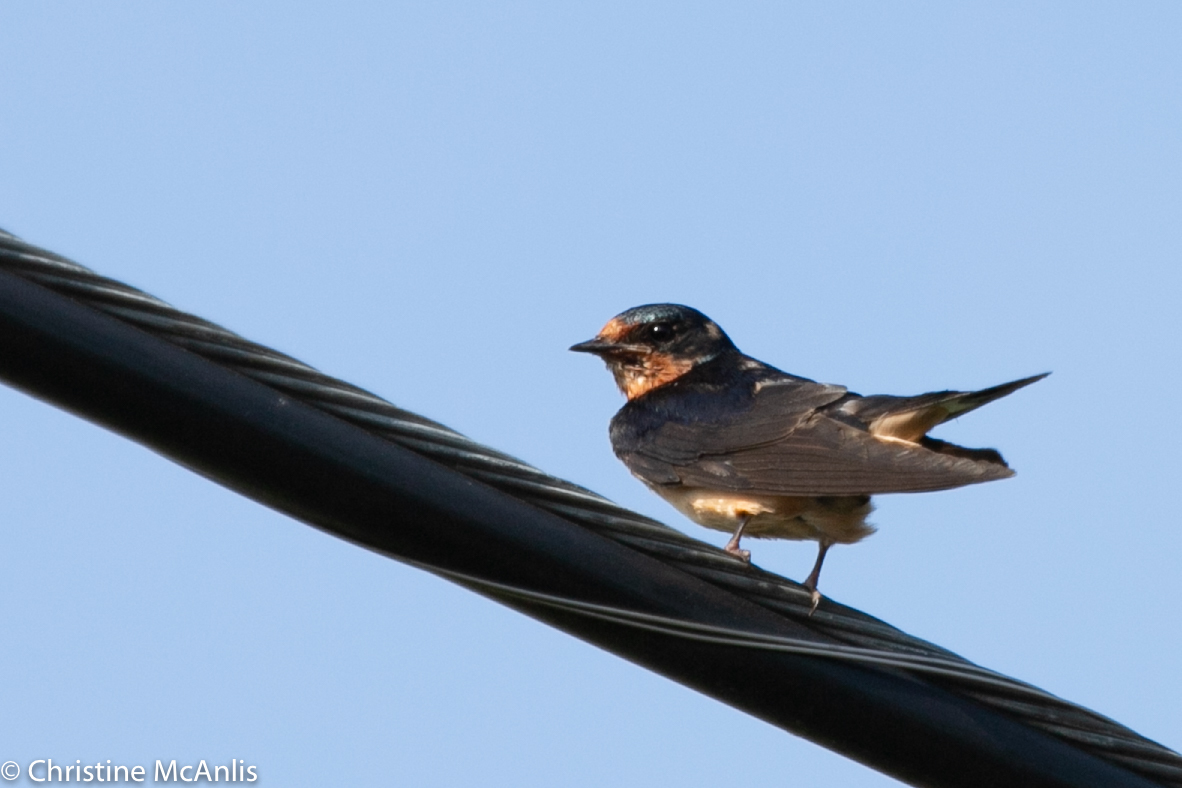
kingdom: Animalia
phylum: Chordata
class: Aves
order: Passeriformes
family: Hirundinidae
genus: Hirundo
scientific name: Hirundo rustica
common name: Barn swallow
